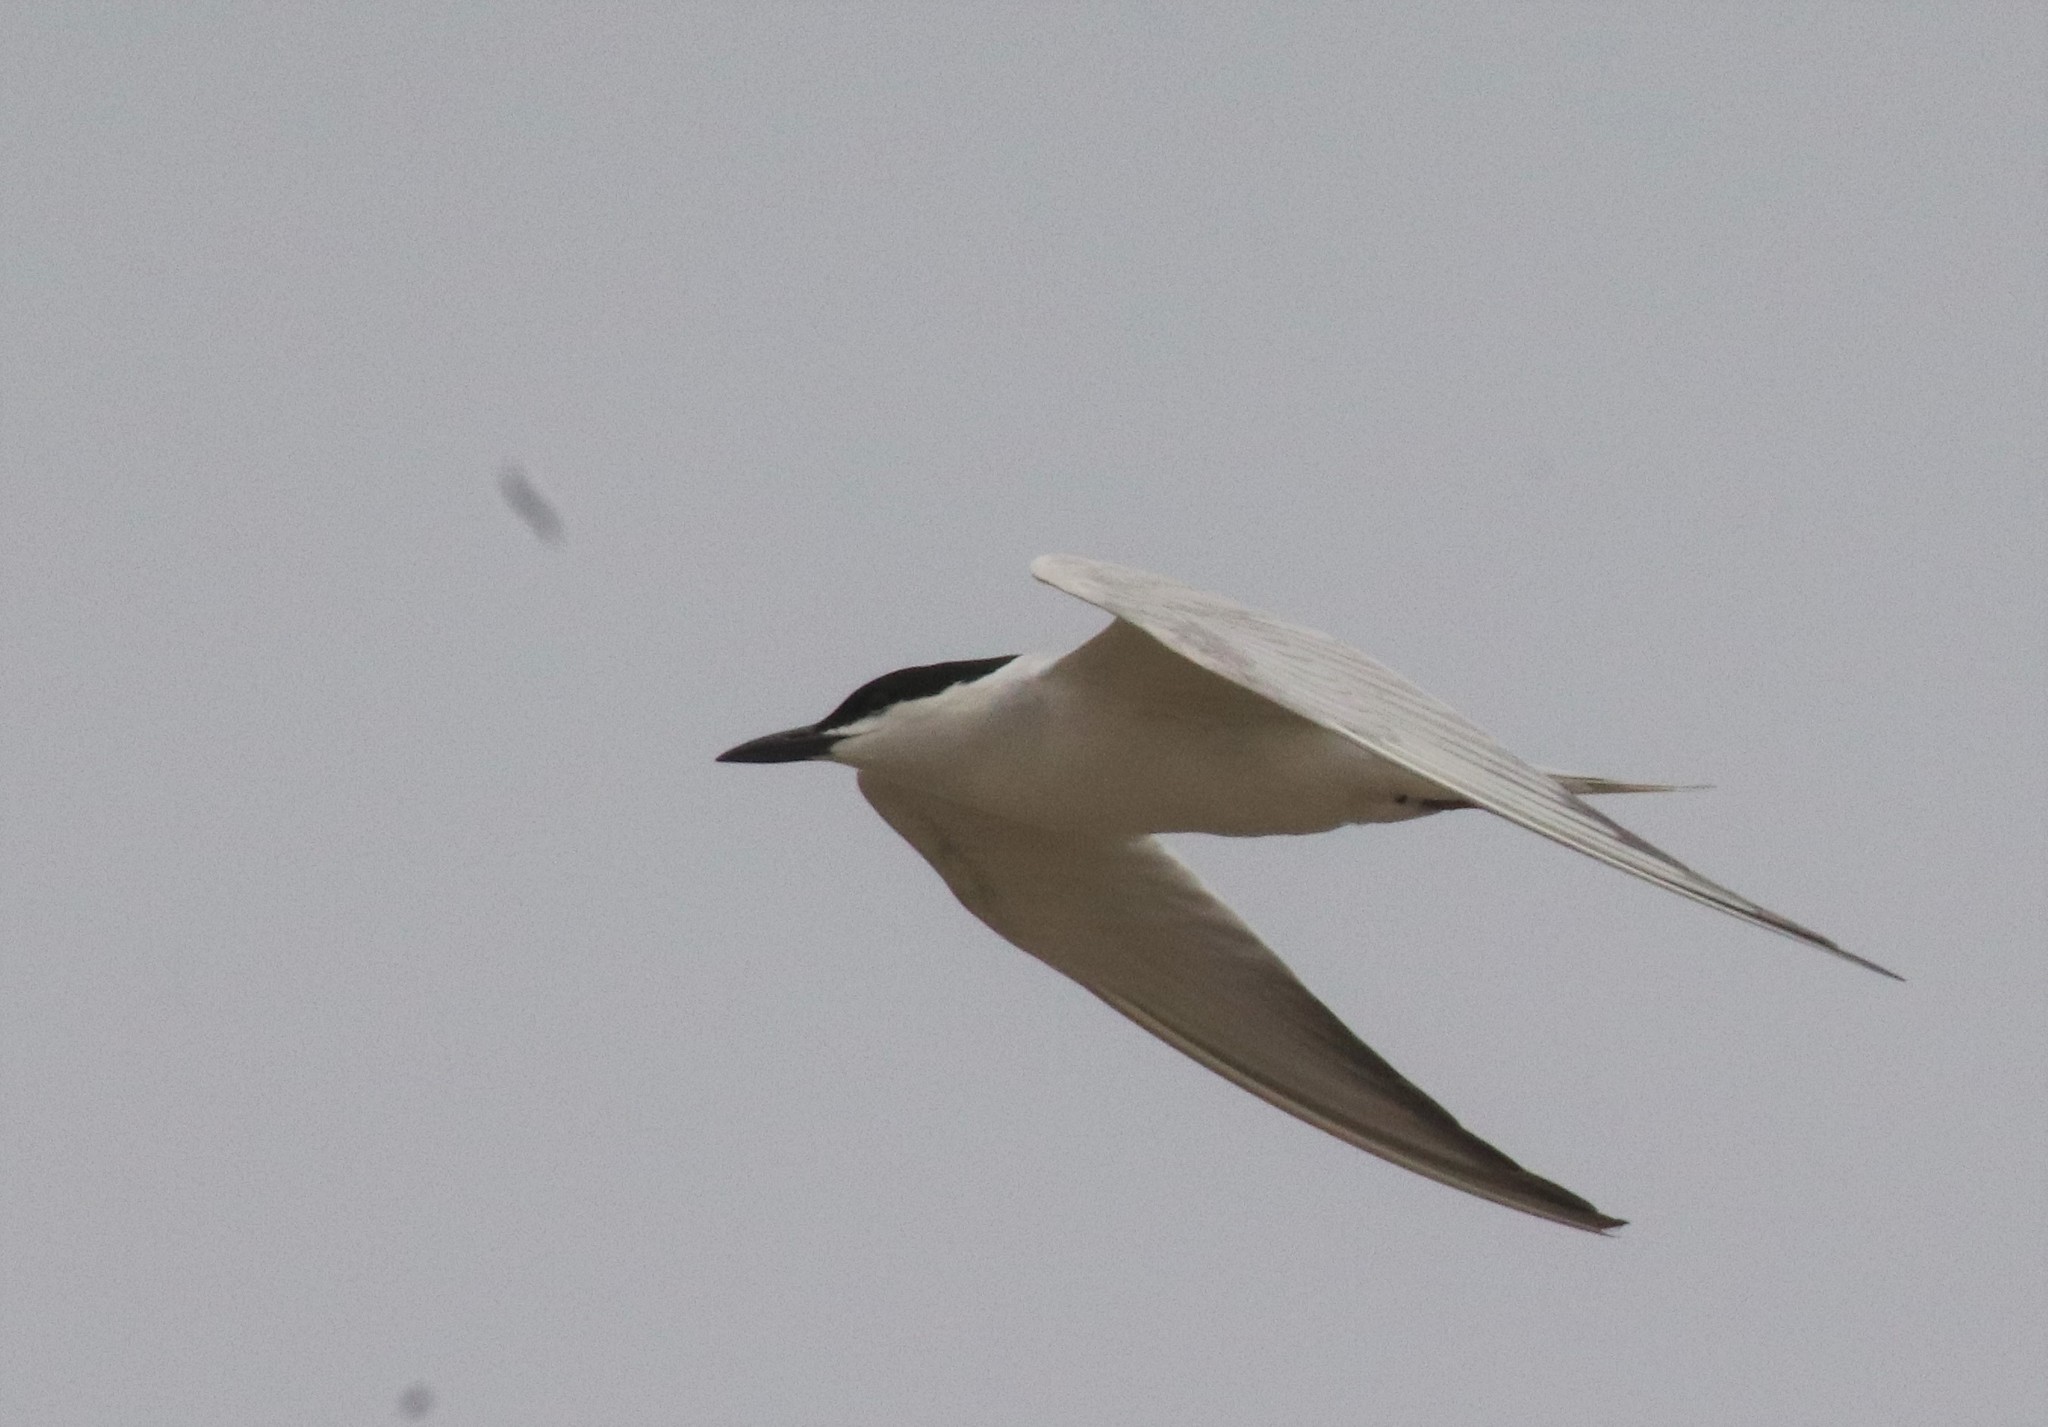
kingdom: Animalia
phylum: Chordata
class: Aves
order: Charadriiformes
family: Laridae
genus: Gelochelidon
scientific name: Gelochelidon nilotica
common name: Gull-billed tern
